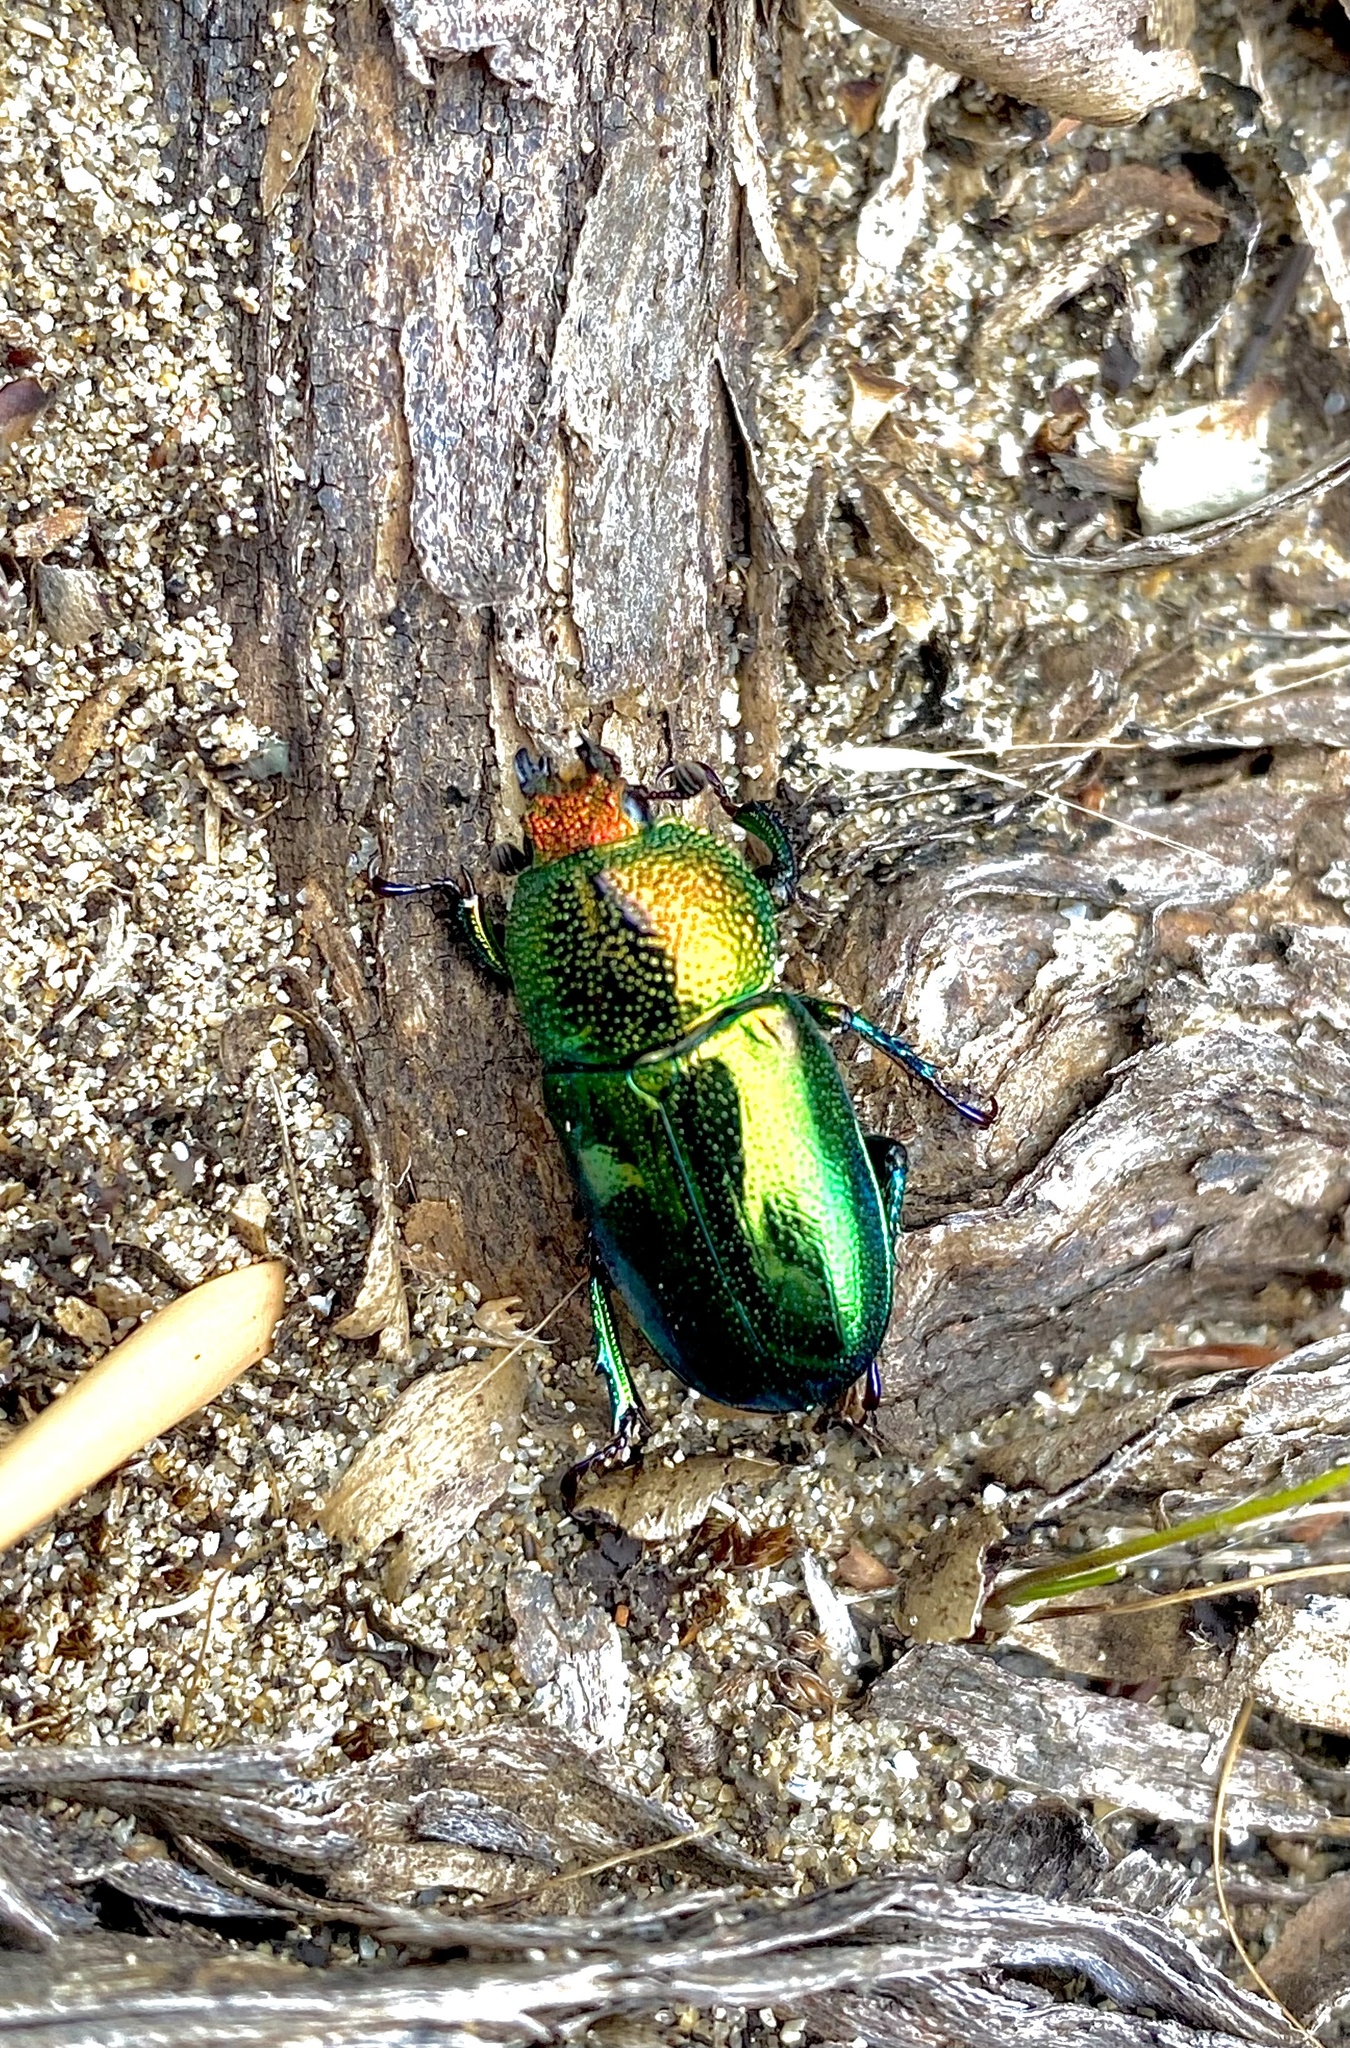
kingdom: Animalia
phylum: Arthropoda
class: Insecta
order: Coleoptera
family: Lucanidae
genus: Lamprima
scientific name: Lamprima aurata
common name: Golden stag beetle
